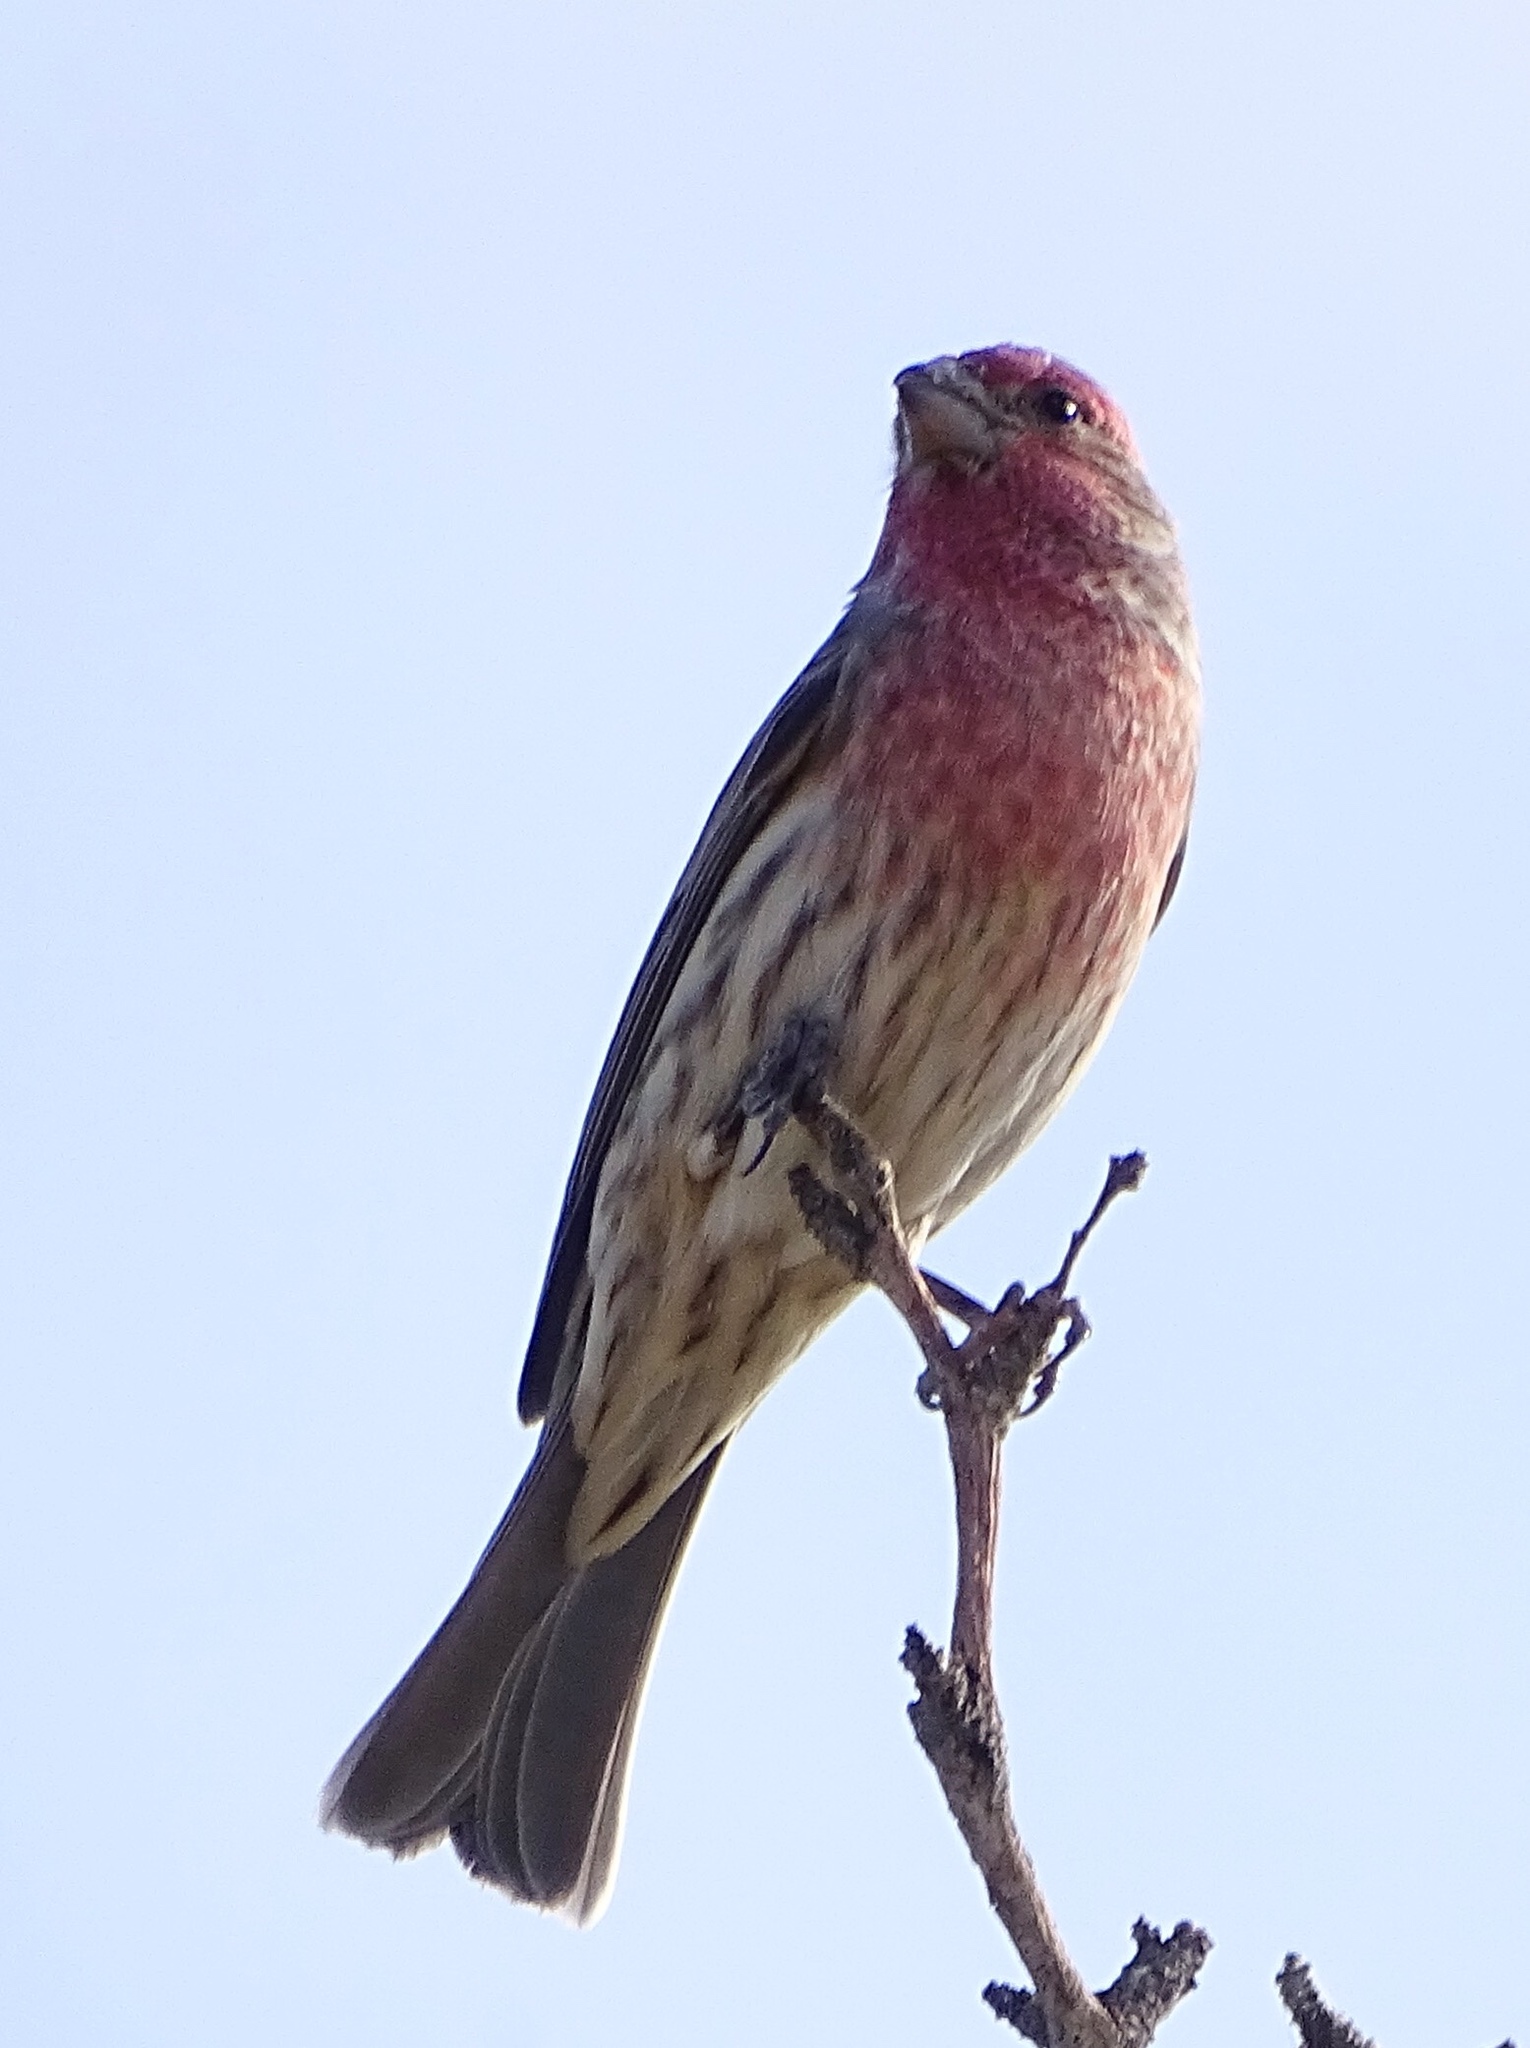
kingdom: Animalia
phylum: Chordata
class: Aves
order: Passeriformes
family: Fringillidae
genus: Haemorhous
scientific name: Haemorhous mexicanus
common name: House finch
